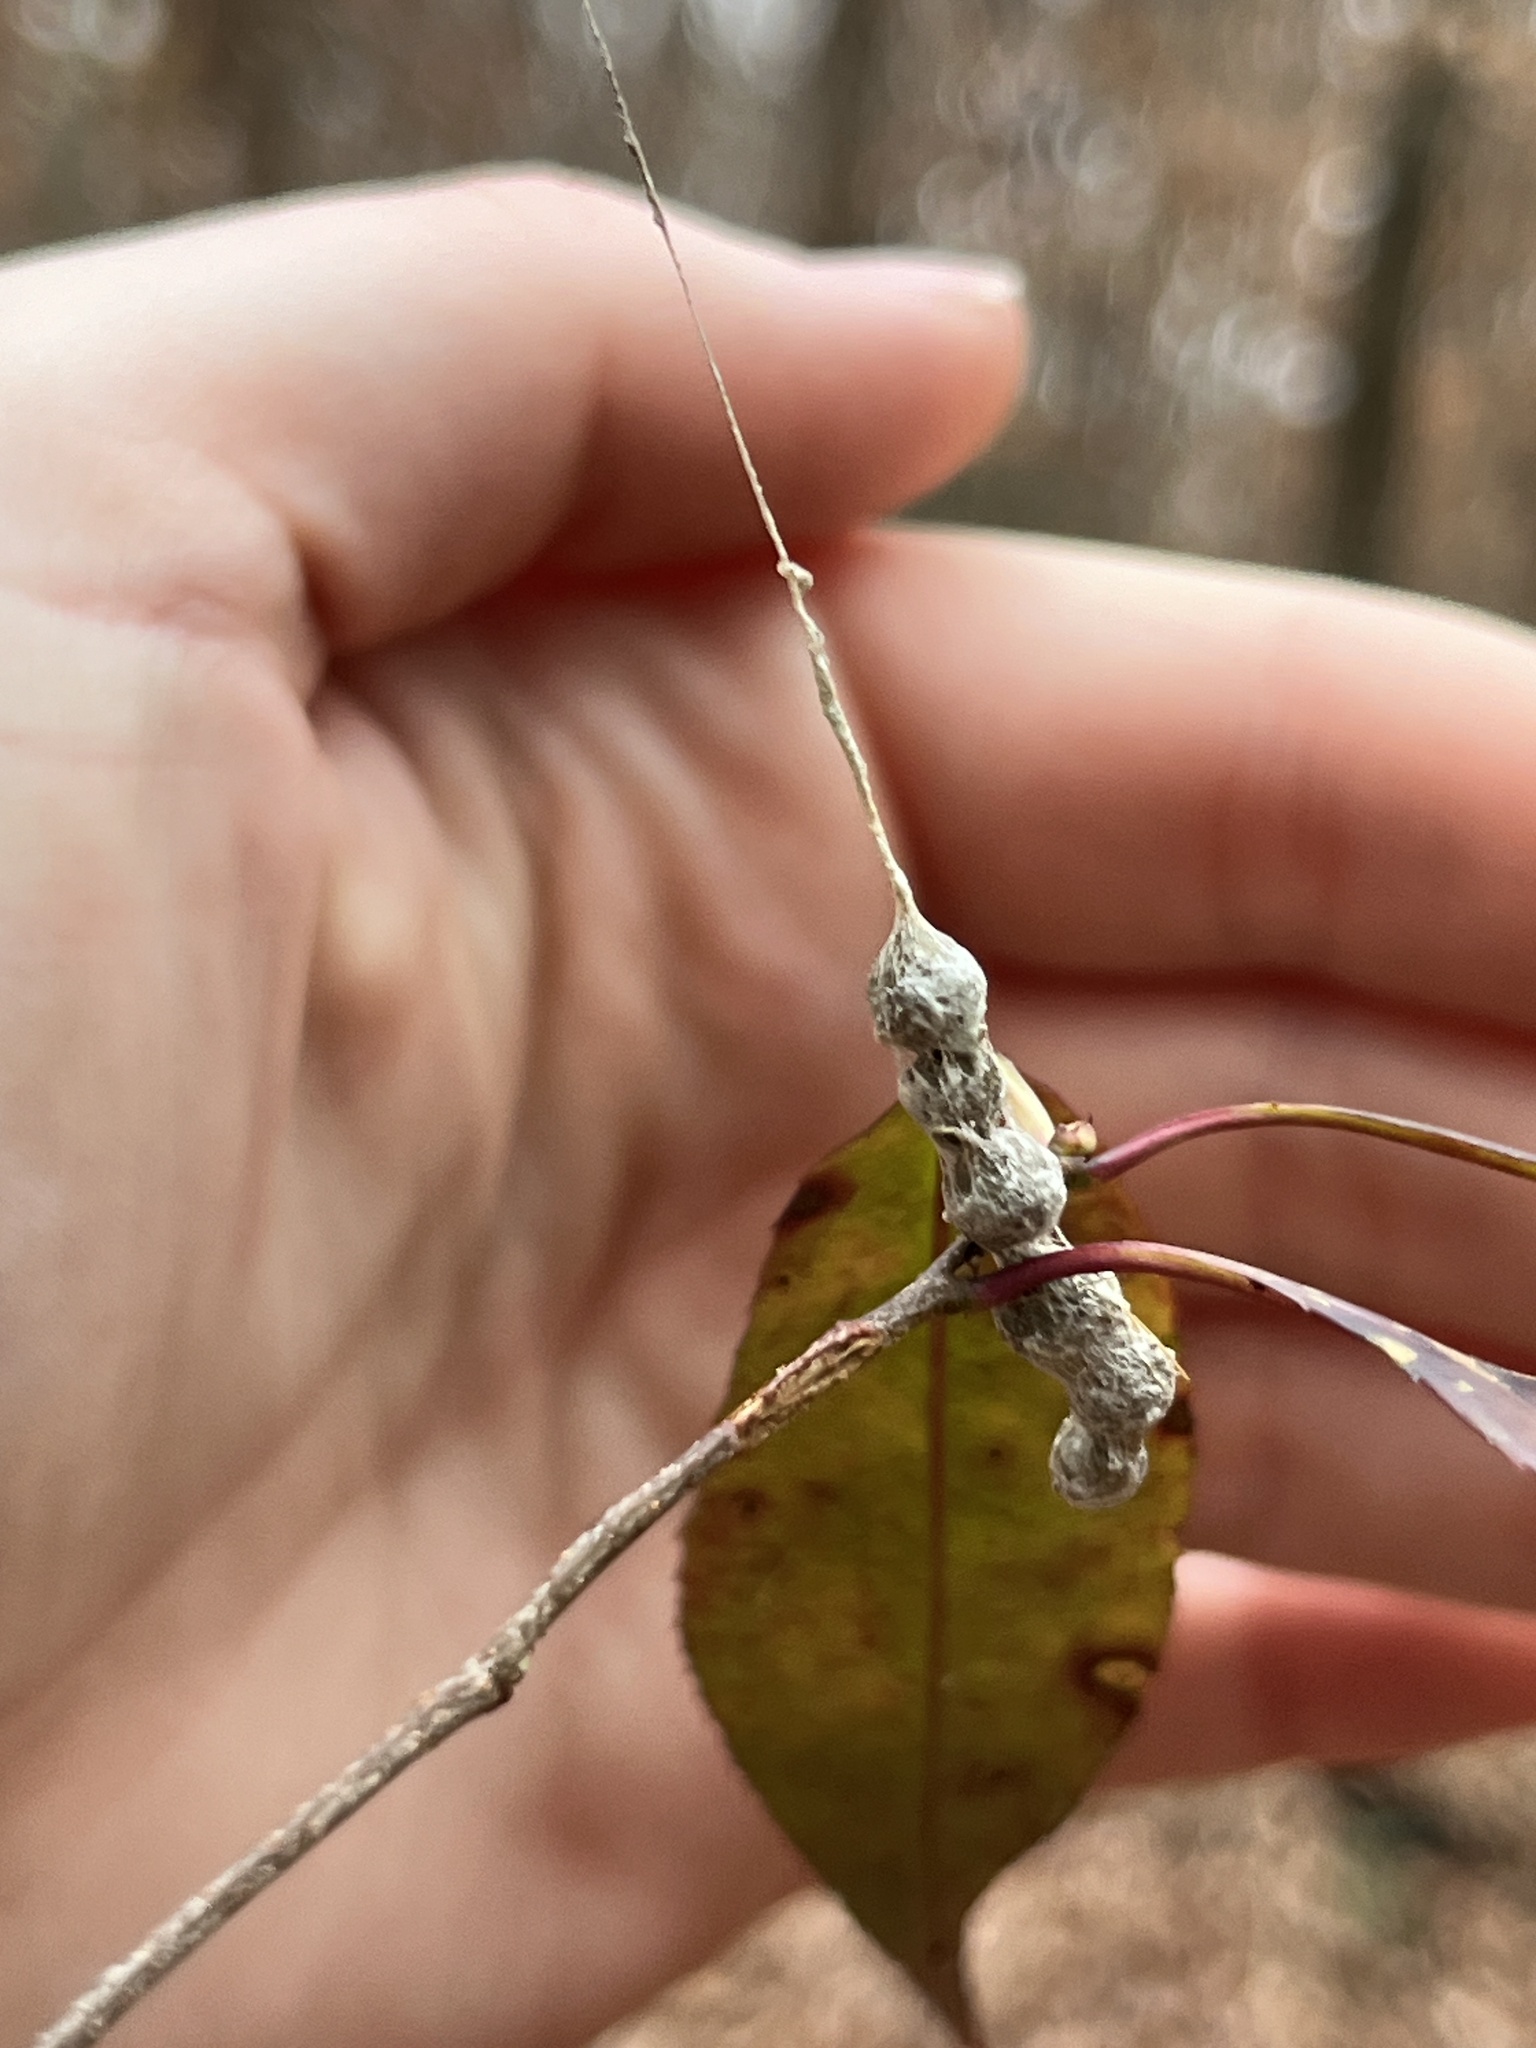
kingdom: Animalia
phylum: Arthropoda
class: Arachnida
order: Araneae
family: Araneidae
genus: Mecynogea
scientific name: Mecynogea lemniscata
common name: Orb weavers
